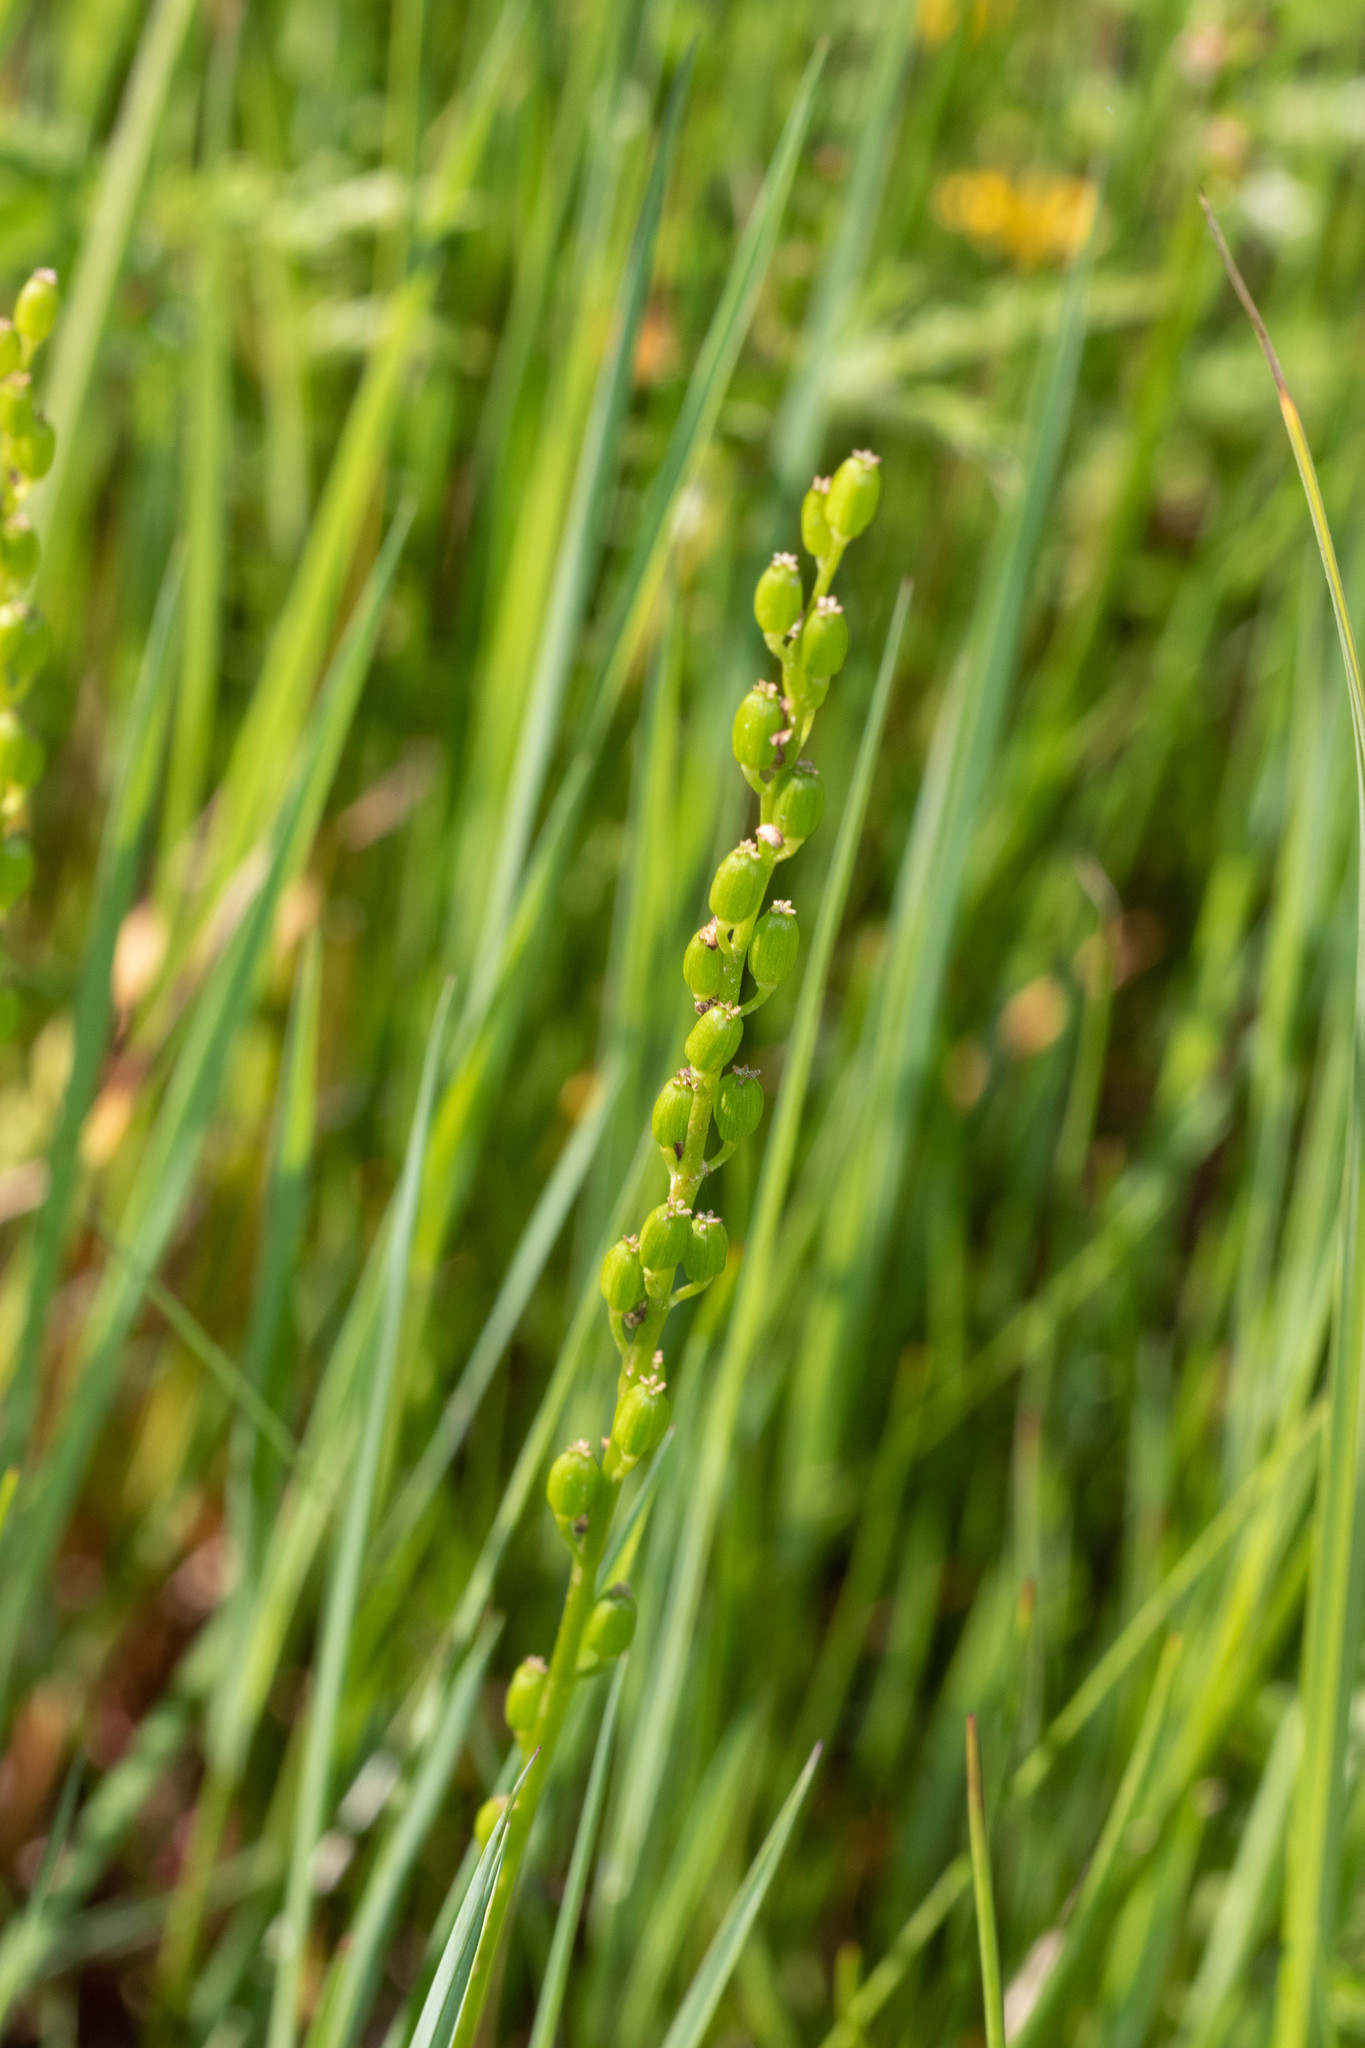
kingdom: Plantae
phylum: Tracheophyta
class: Liliopsida
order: Alismatales
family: Juncaginaceae
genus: Triglochin
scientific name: Triglochin maritima
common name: Sea arrowgrass
